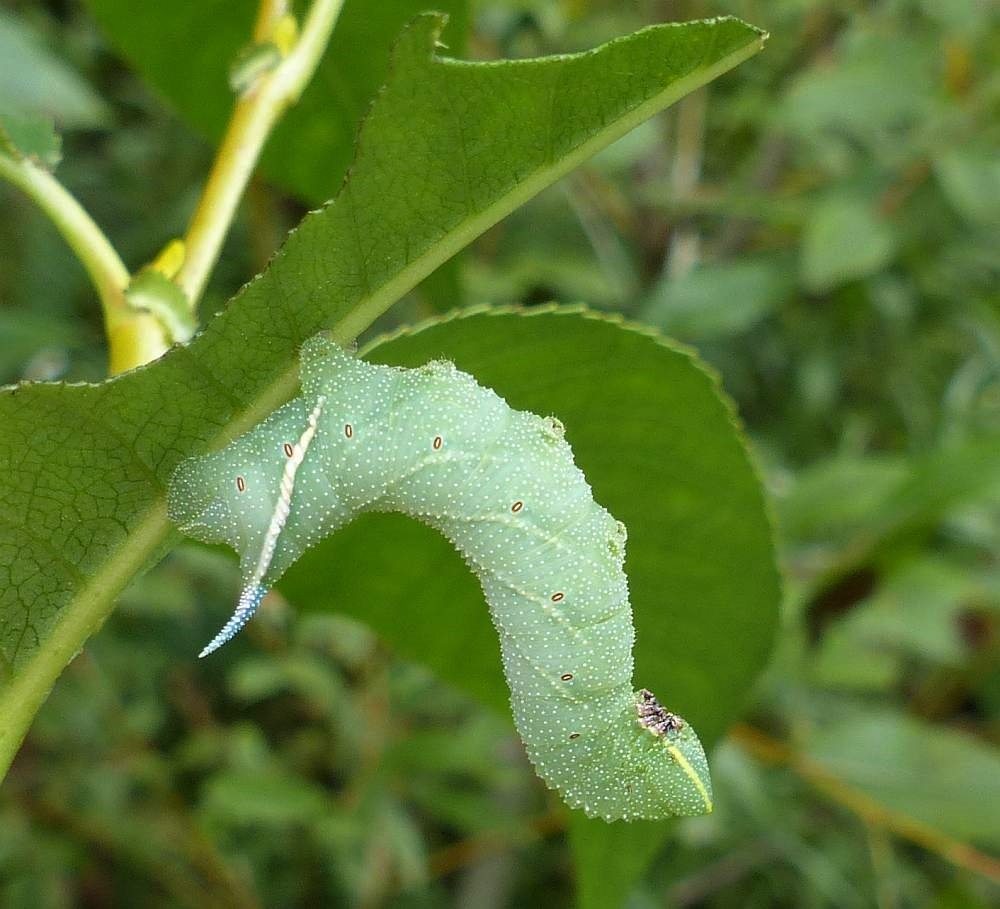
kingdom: Animalia
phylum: Arthropoda
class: Insecta
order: Lepidoptera
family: Sphingidae
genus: Smerinthus
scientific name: Smerinthus jamaicensis
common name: Twin spotted sphinx
